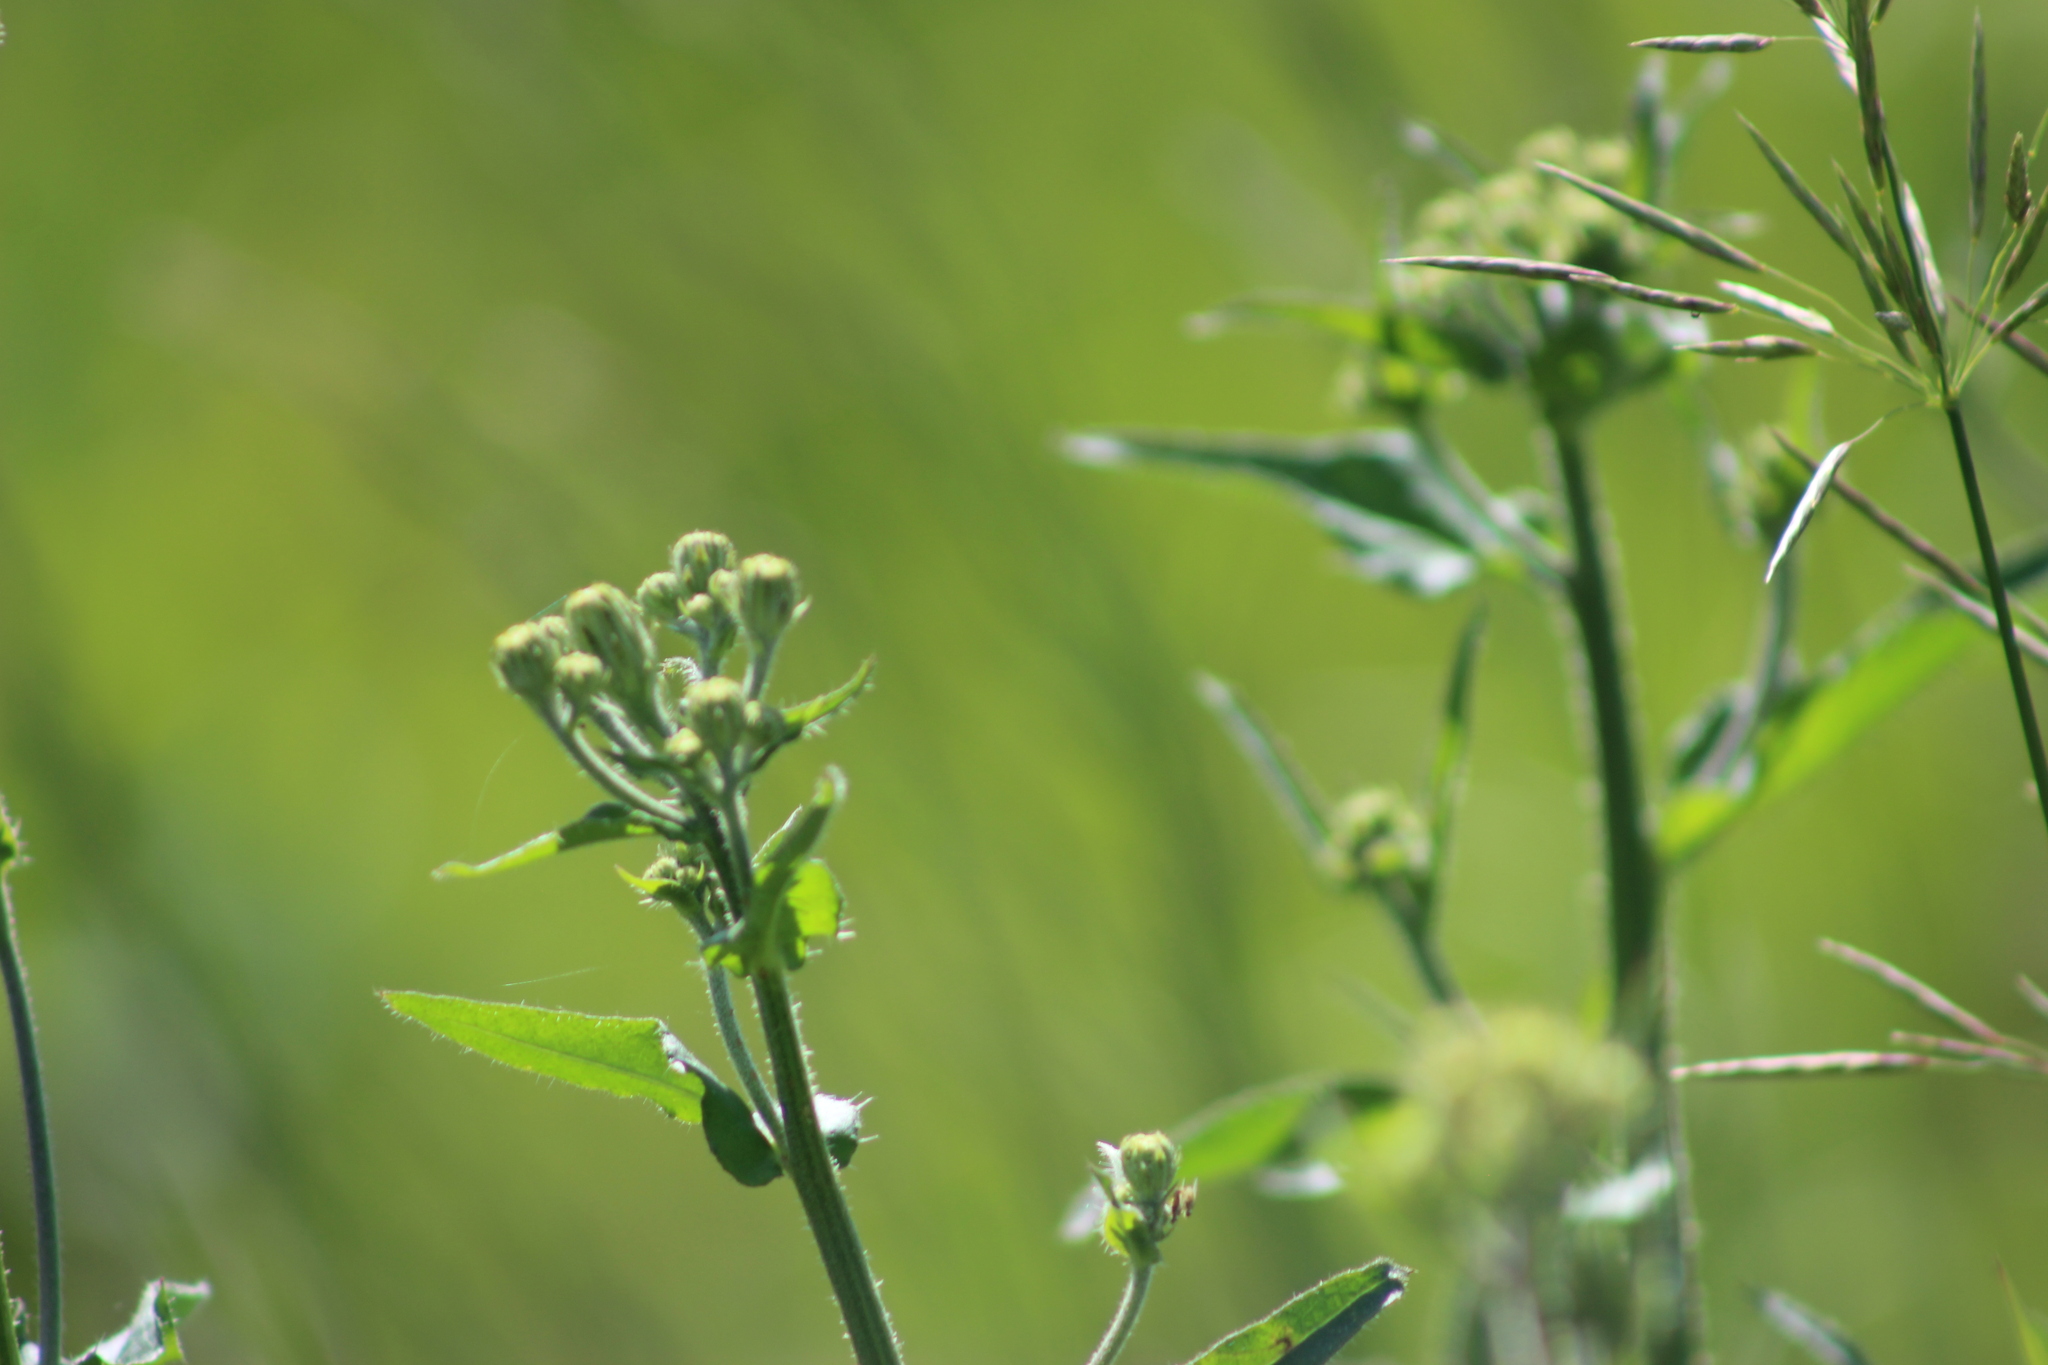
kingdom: Plantae
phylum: Tracheophyta
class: Magnoliopsida
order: Asterales
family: Asteraceae
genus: Picris
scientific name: Picris hieracioides
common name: Hawkweed oxtongue
